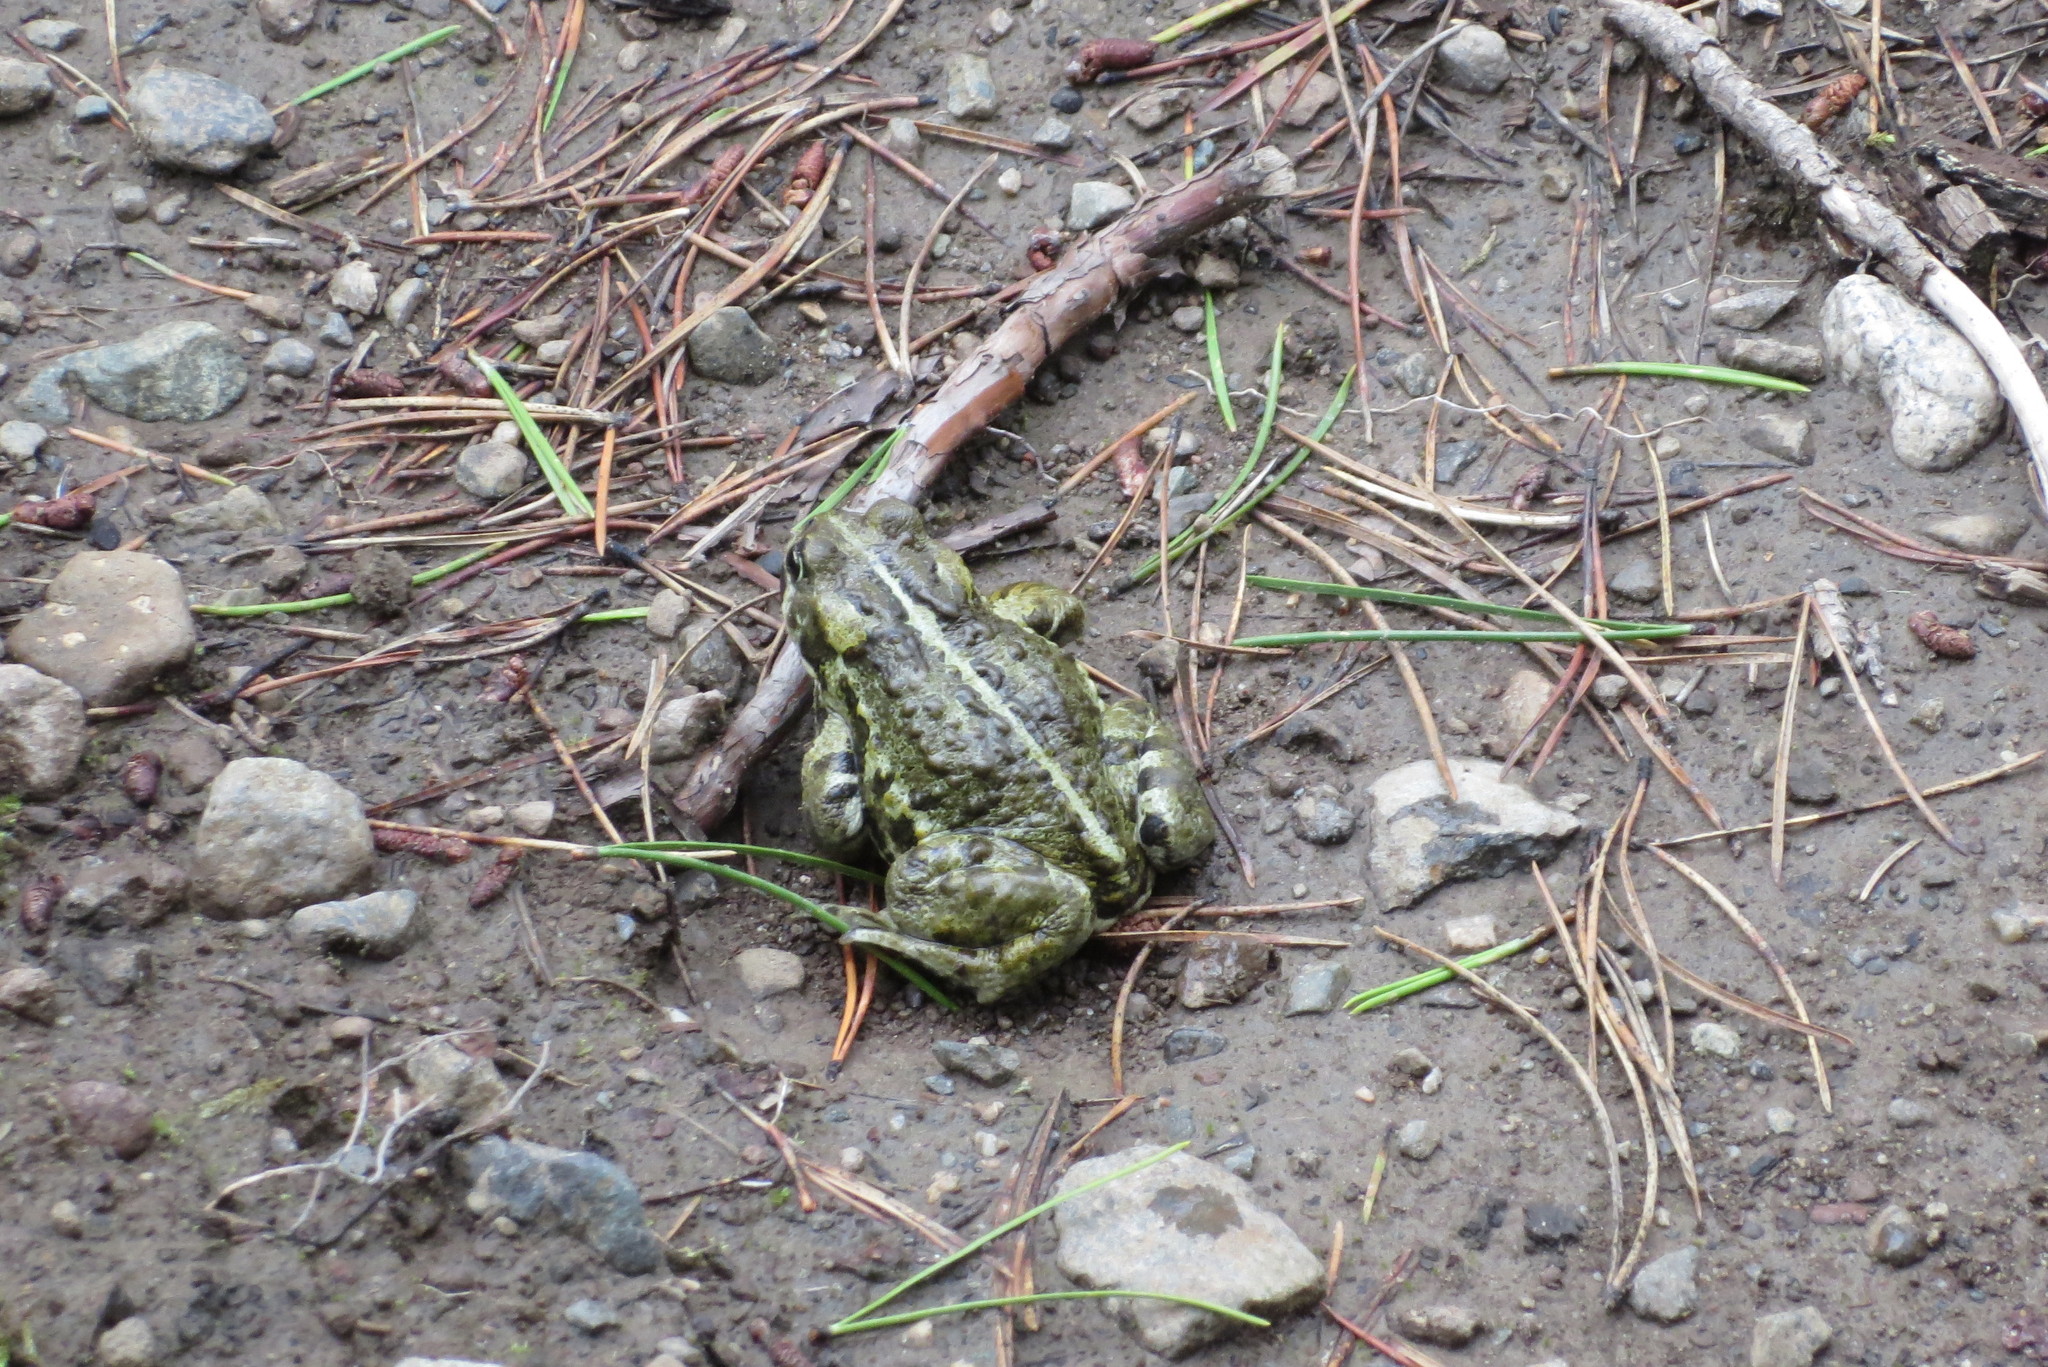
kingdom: Animalia
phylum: Chordata
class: Amphibia
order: Anura
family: Bufonidae
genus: Anaxyrus
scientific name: Anaxyrus boreas
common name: Western toad
